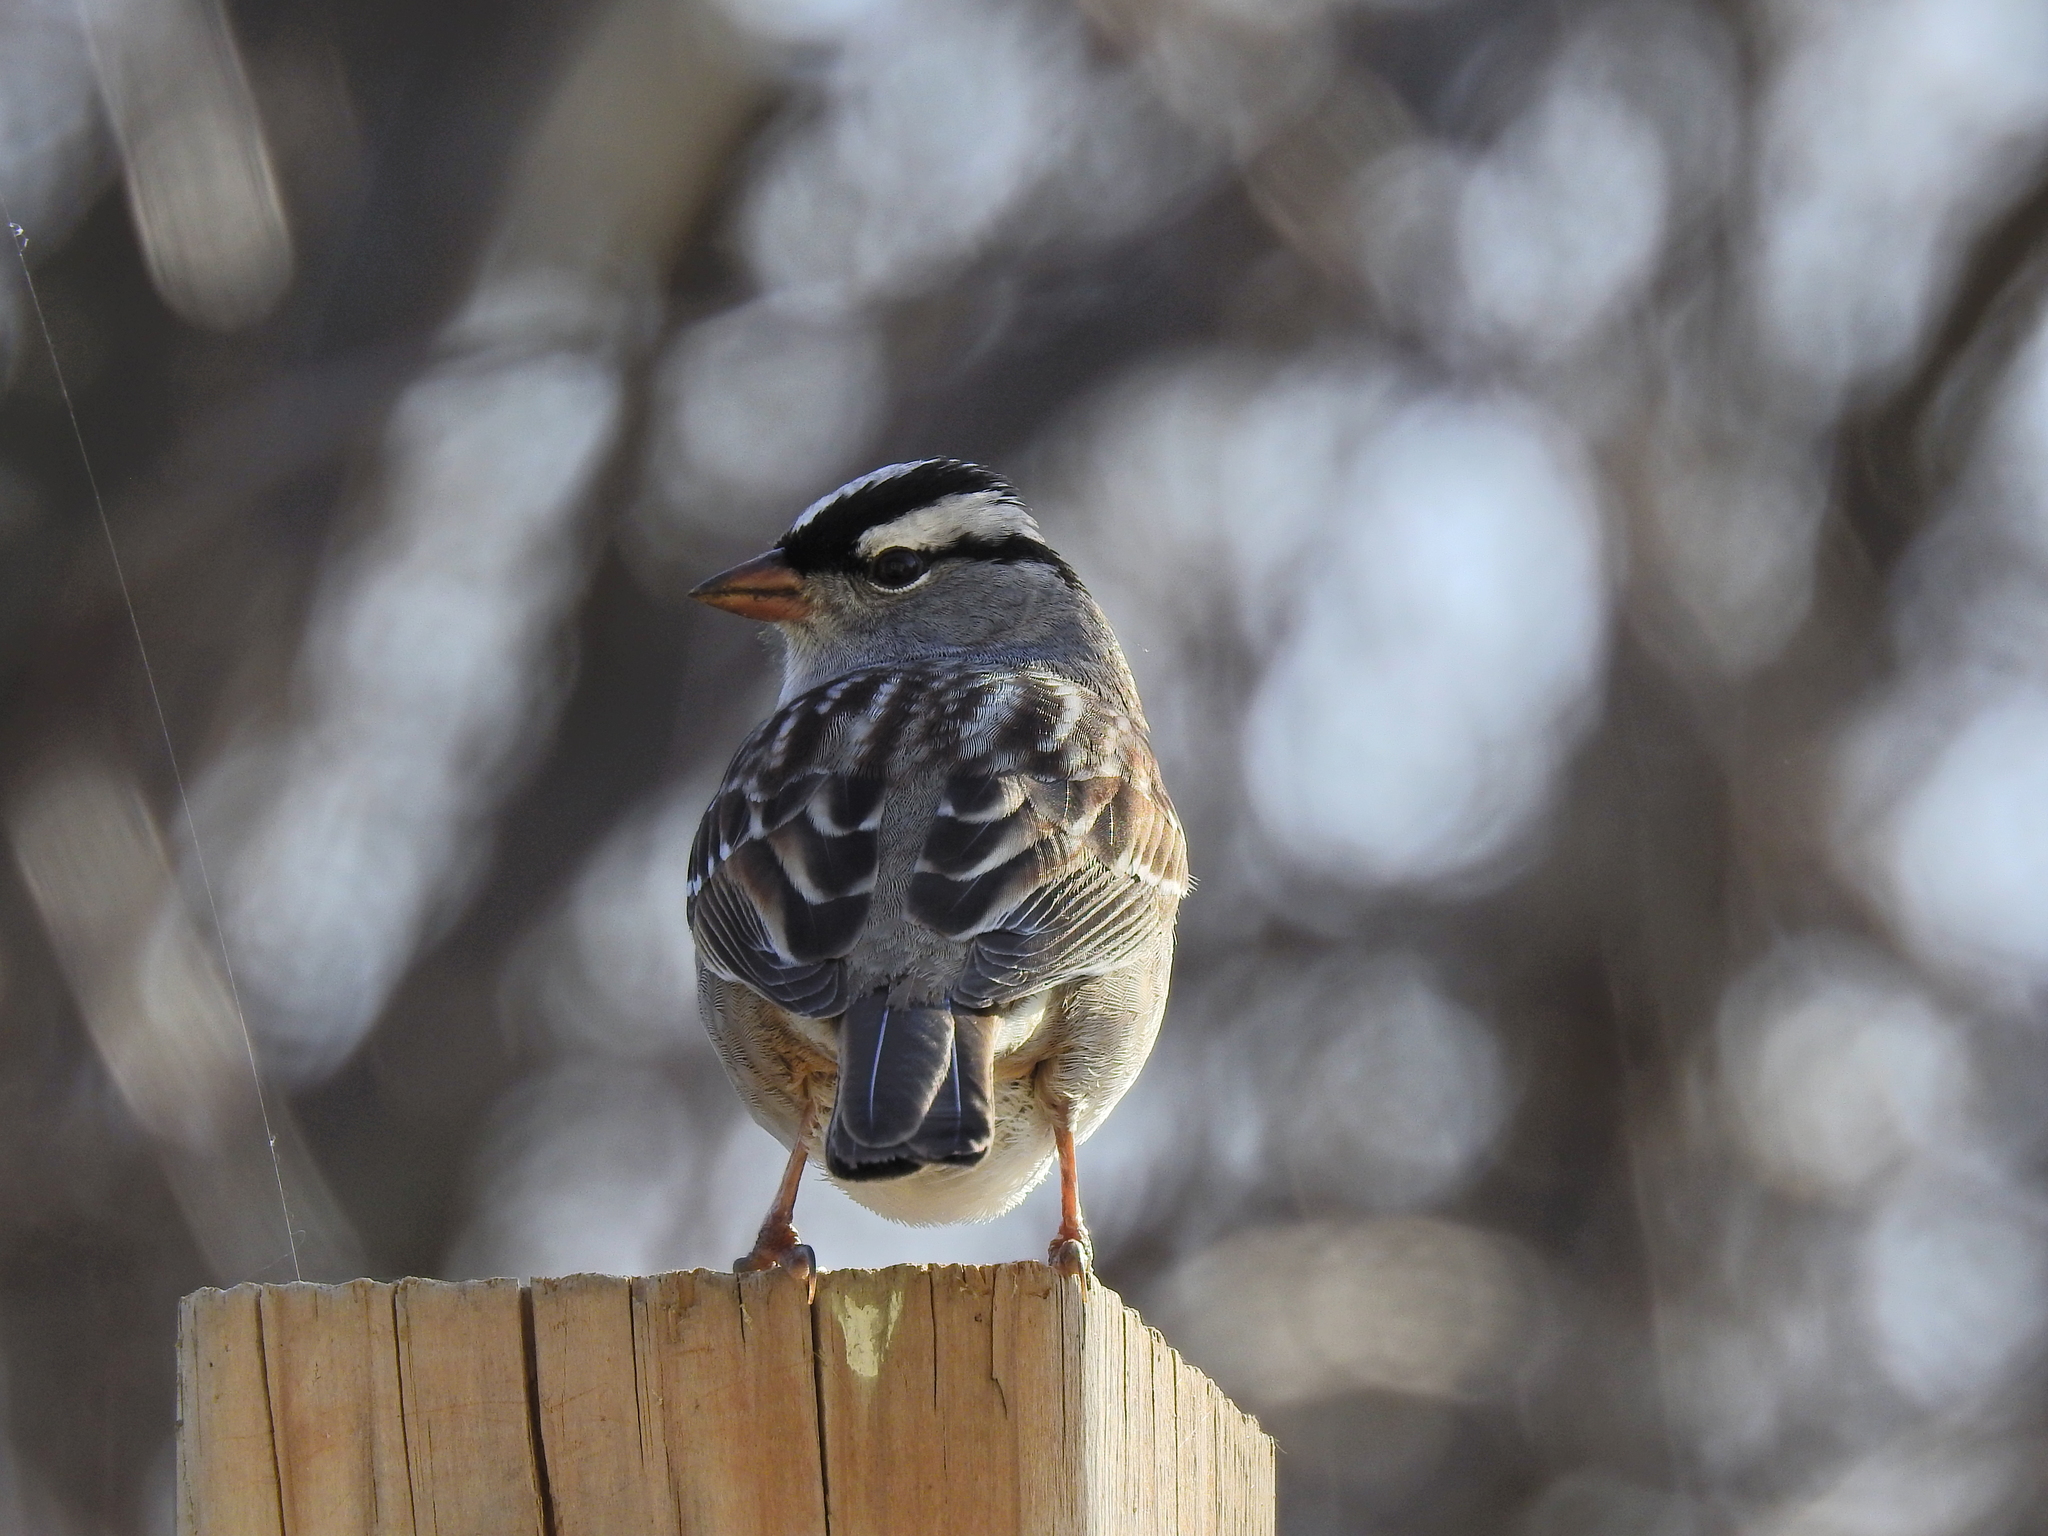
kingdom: Animalia
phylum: Chordata
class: Aves
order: Passeriformes
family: Passerellidae
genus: Zonotrichia
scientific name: Zonotrichia leucophrys
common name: White-crowned sparrow
